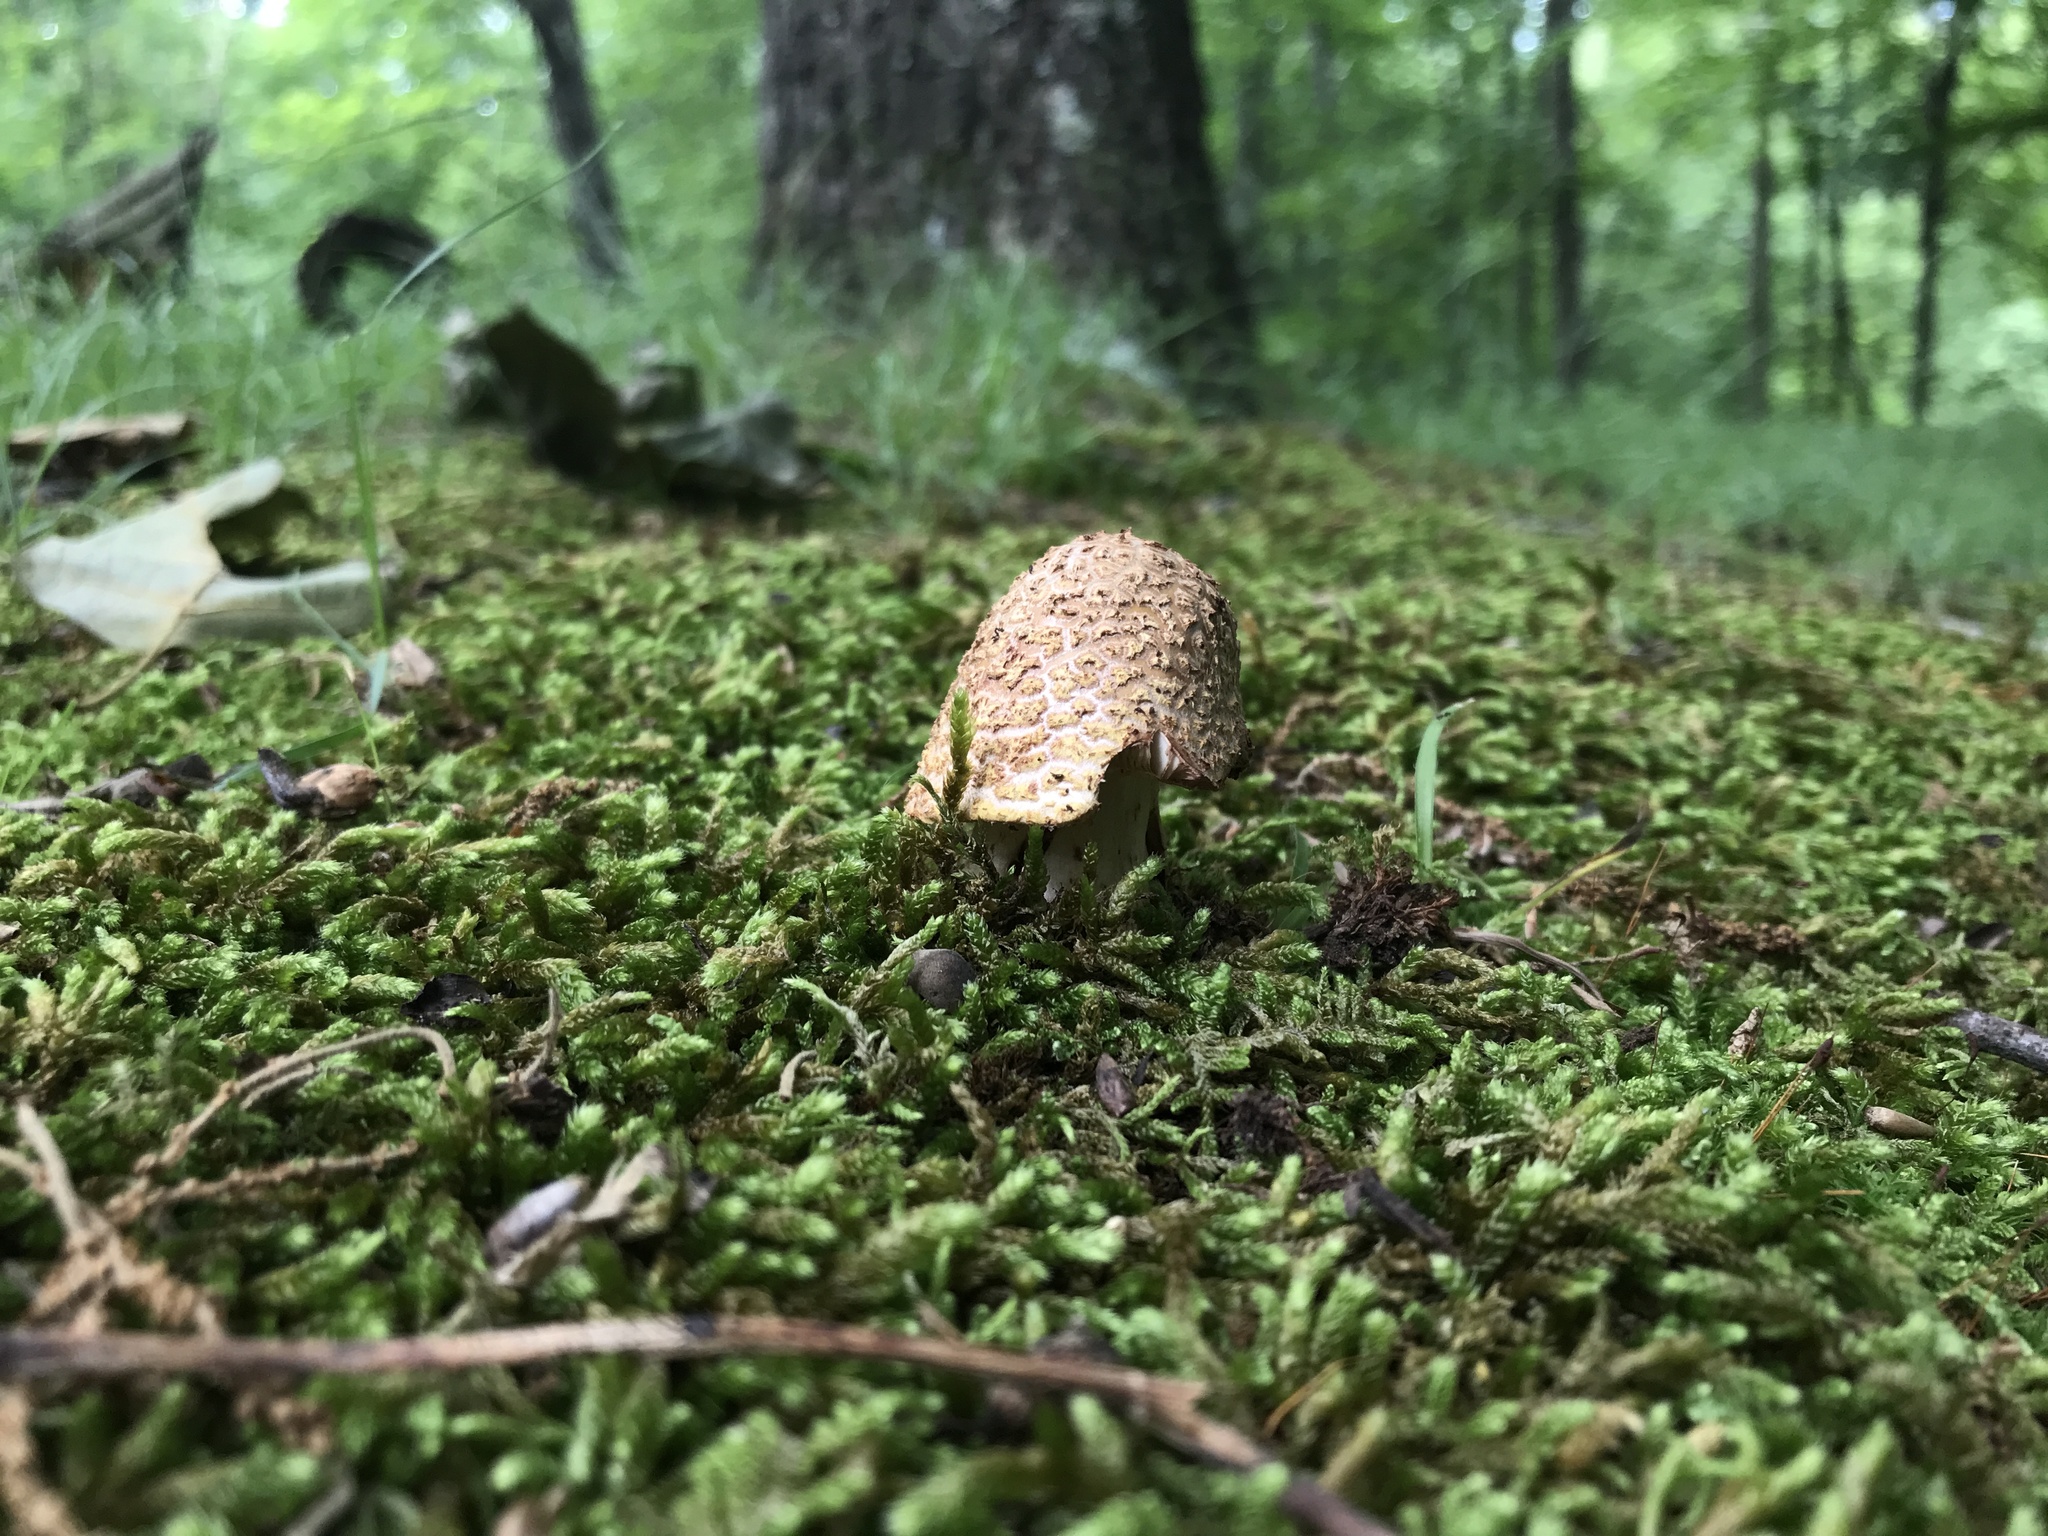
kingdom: Fungi
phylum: Basidiomycota
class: Agaricomycetes
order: Agaricales
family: Amanitaceae
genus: Amanita
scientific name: Amanita flavorubens
